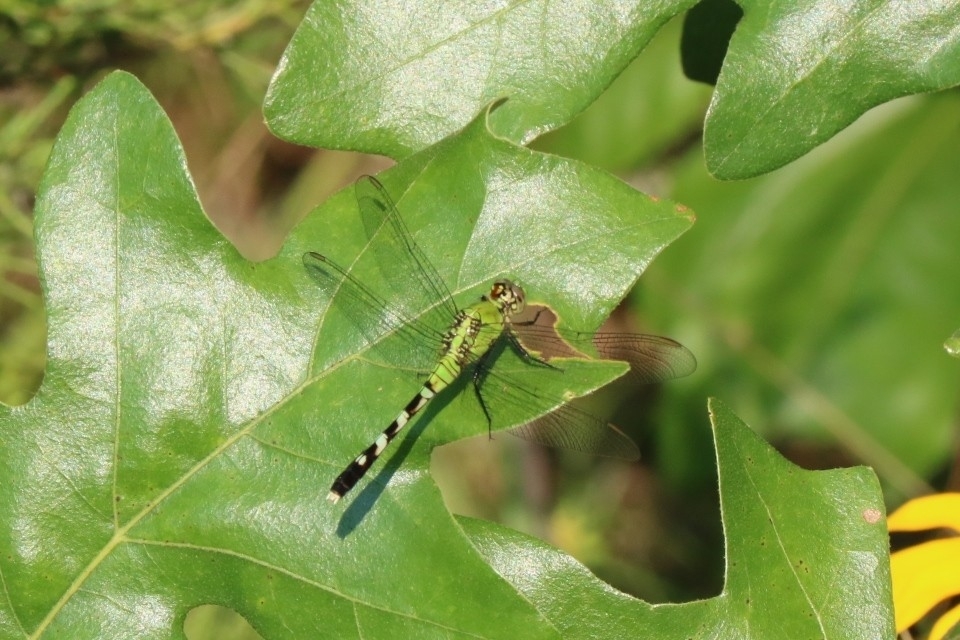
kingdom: Animalia
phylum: Arthropoda
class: Insecta
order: Odonata
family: Libellulidae
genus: Erythemis
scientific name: Erythemis simplicicollis
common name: Eastern pondhawk
